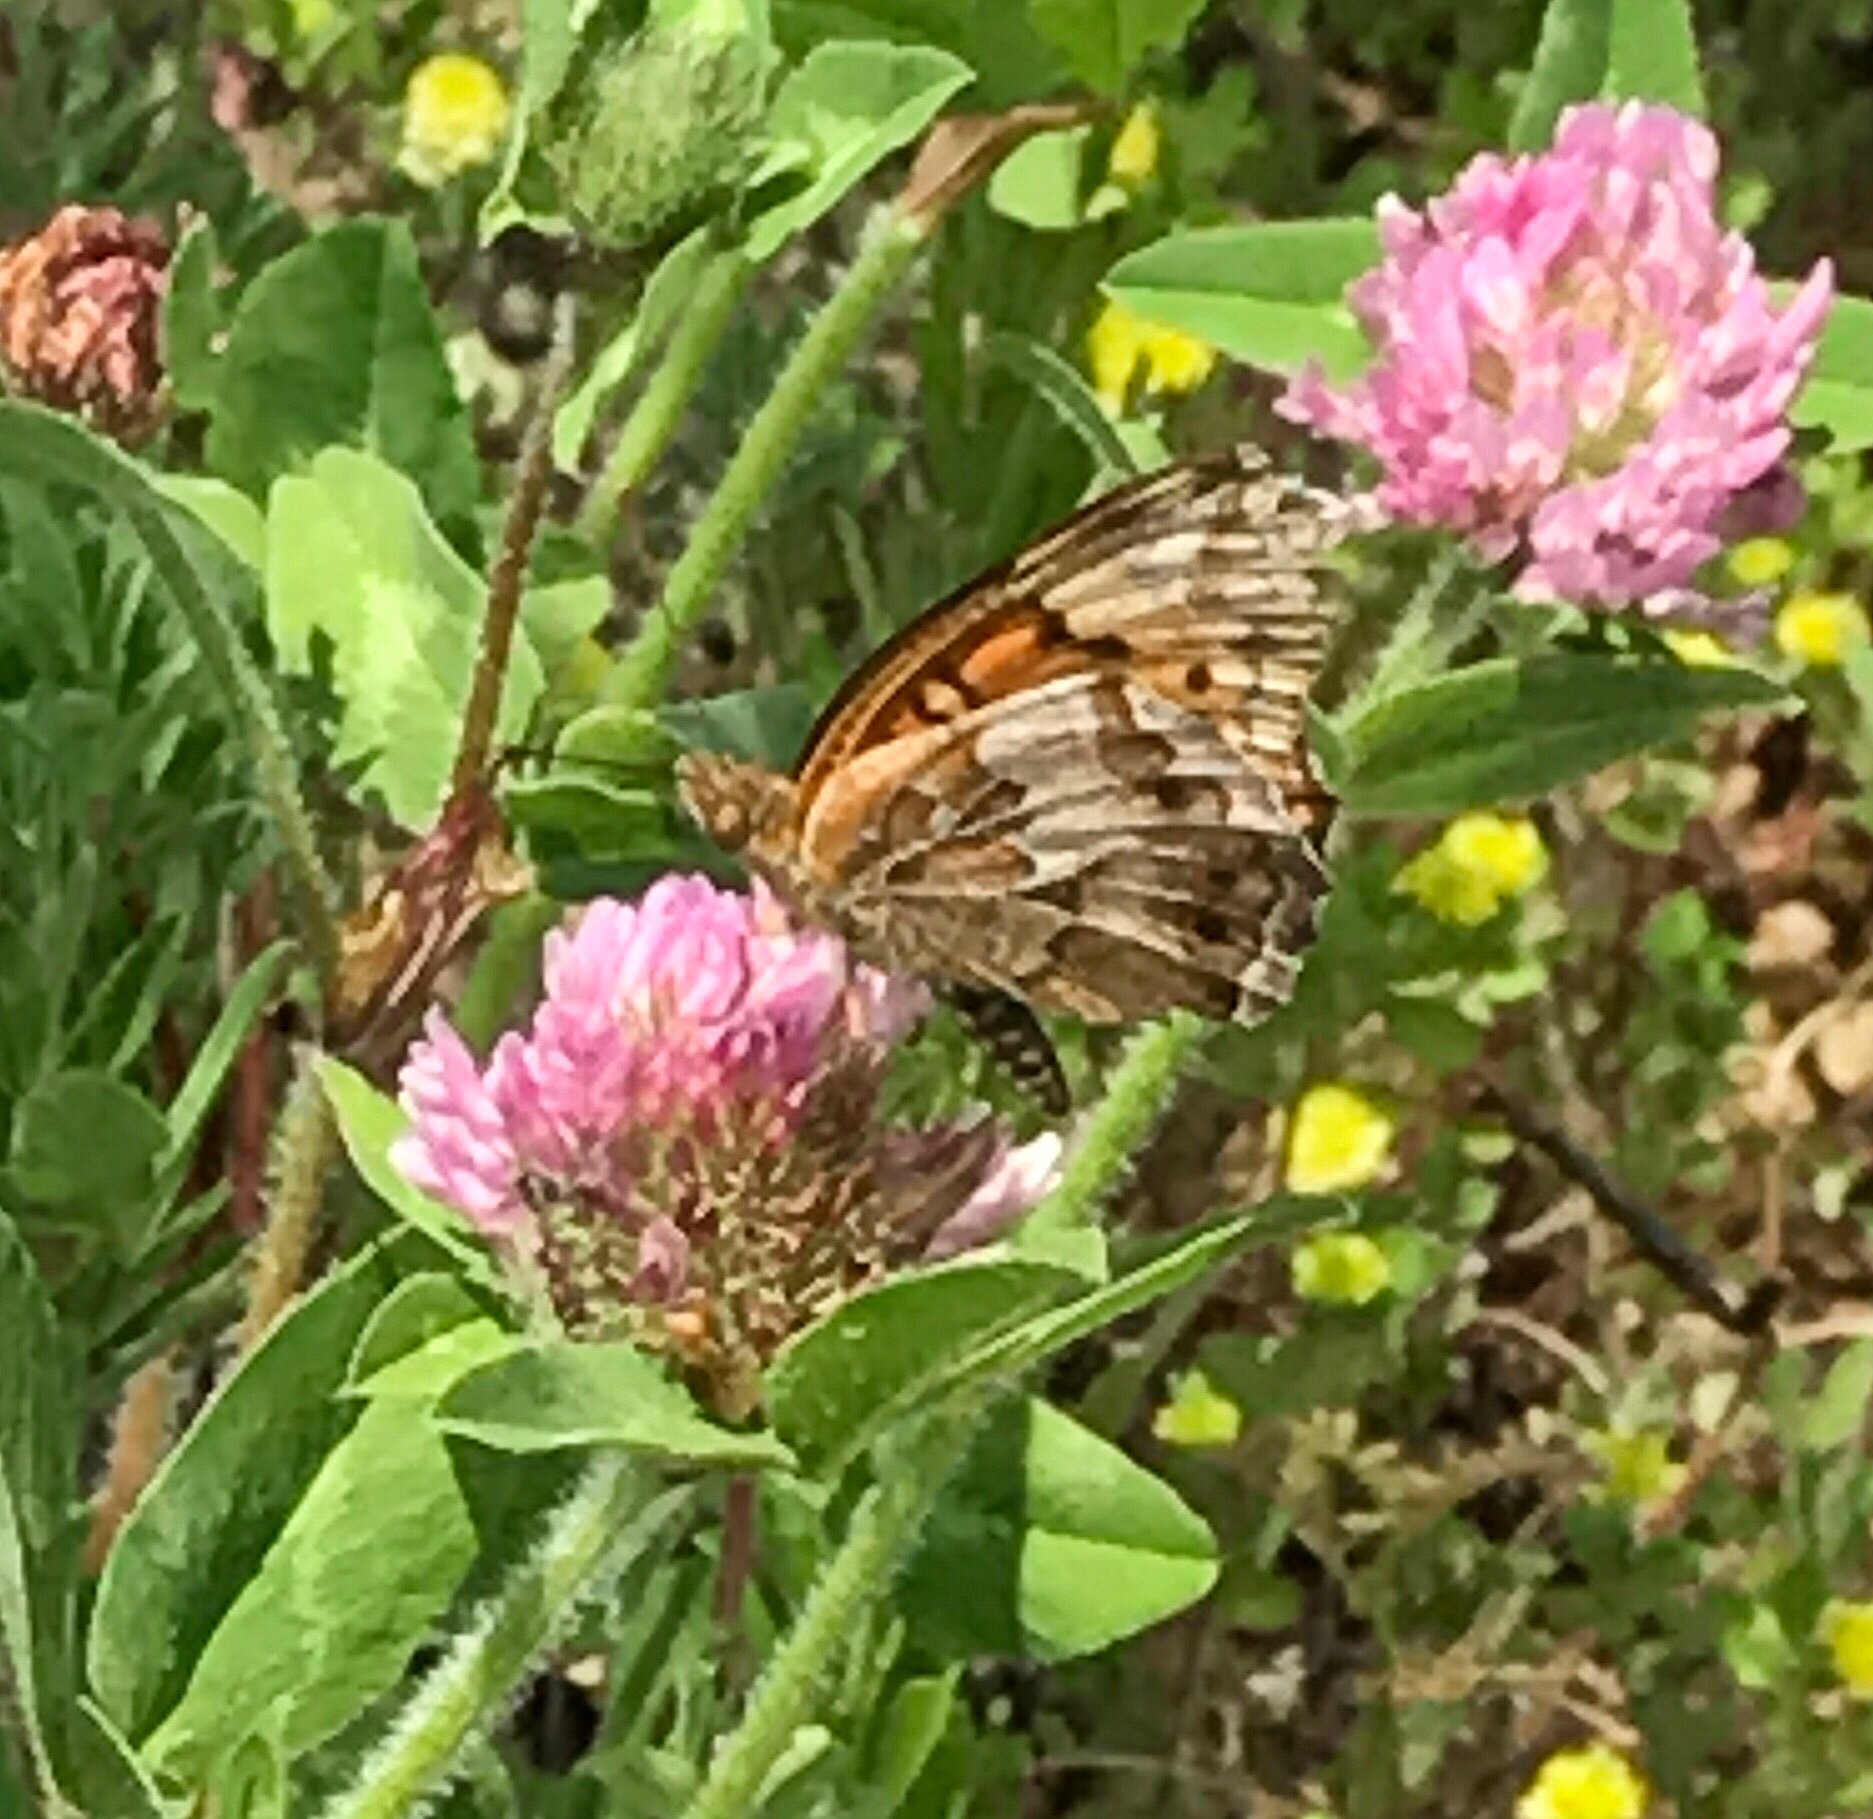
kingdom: Animalia
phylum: Arthropoda
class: Insecta
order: Lepidoptera
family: Nymphalidae
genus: Euptoieta
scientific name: Euptoieta claudia
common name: Variegated fritillary
